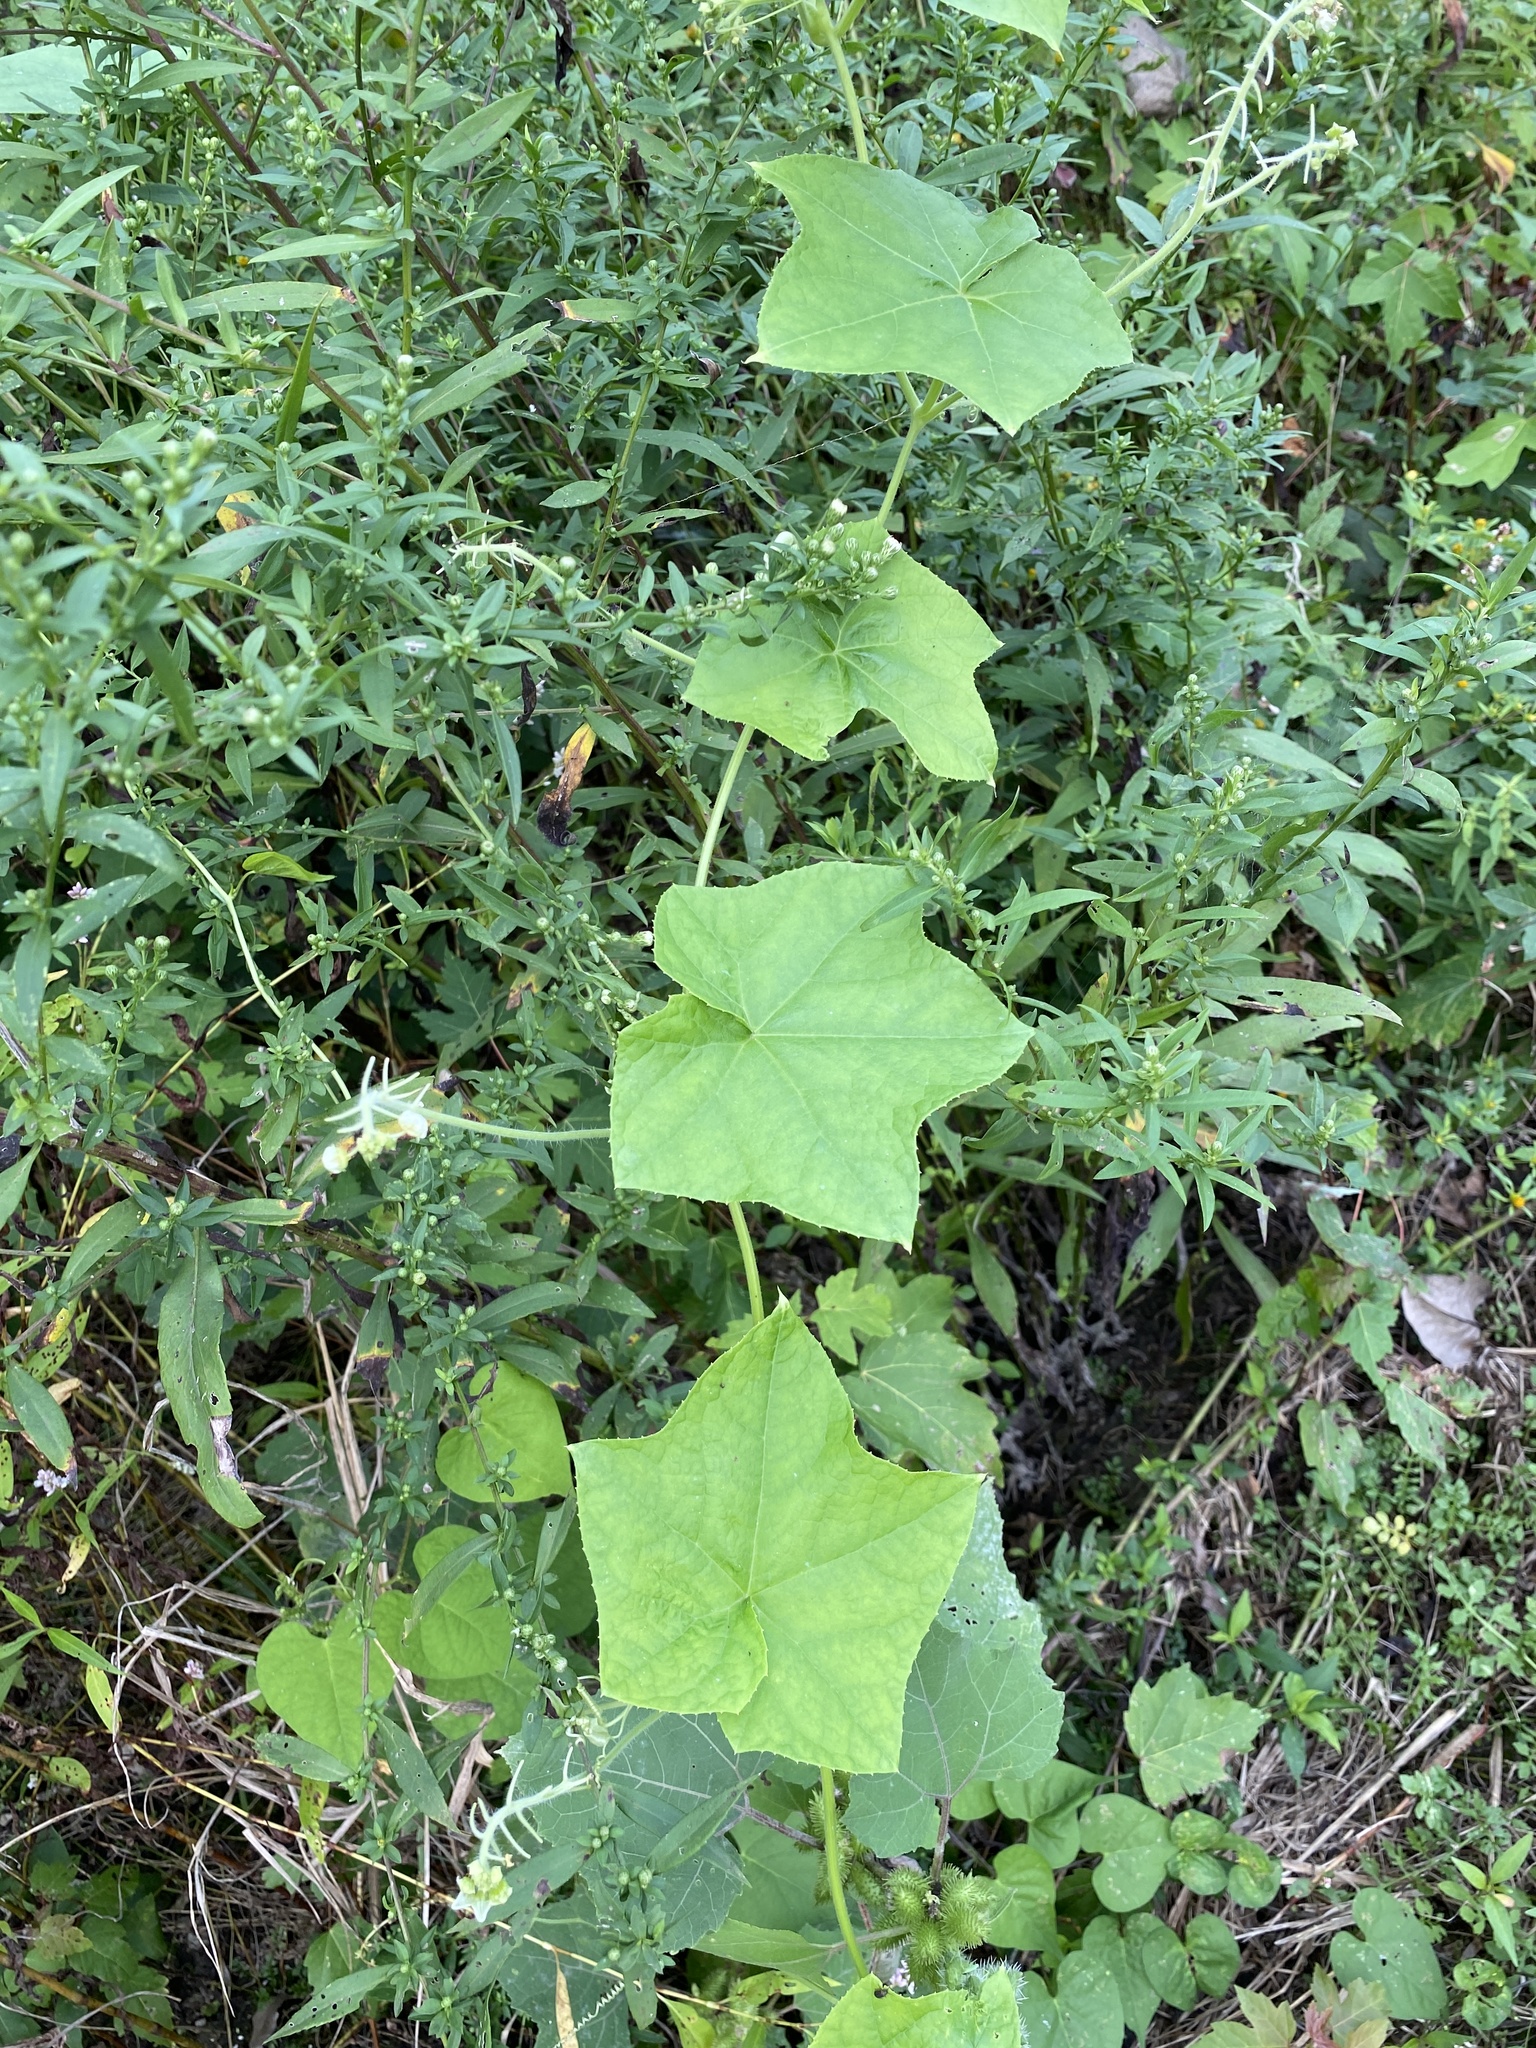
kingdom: Plantae
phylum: Tracheophyta
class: Magnoliopsida
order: Cucurbitales
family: Cucurbitaceae
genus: Sicyos
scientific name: Sicyos angulatus
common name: Angled burr cucumber
